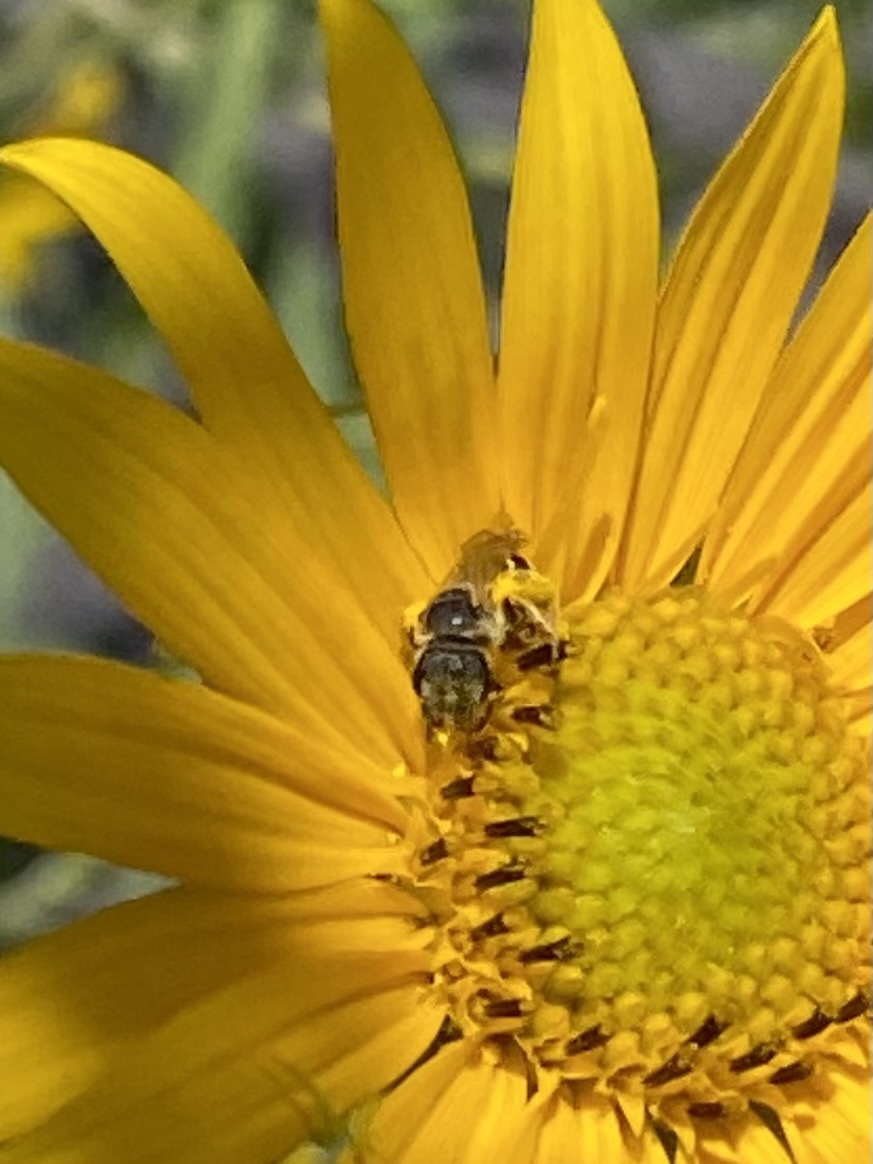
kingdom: Animalia
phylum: Arthropoda
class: Insecta
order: Hymenoptera
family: Halictidae
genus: Halictus
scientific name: Halictus ligatus
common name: Ligated furrow bee
